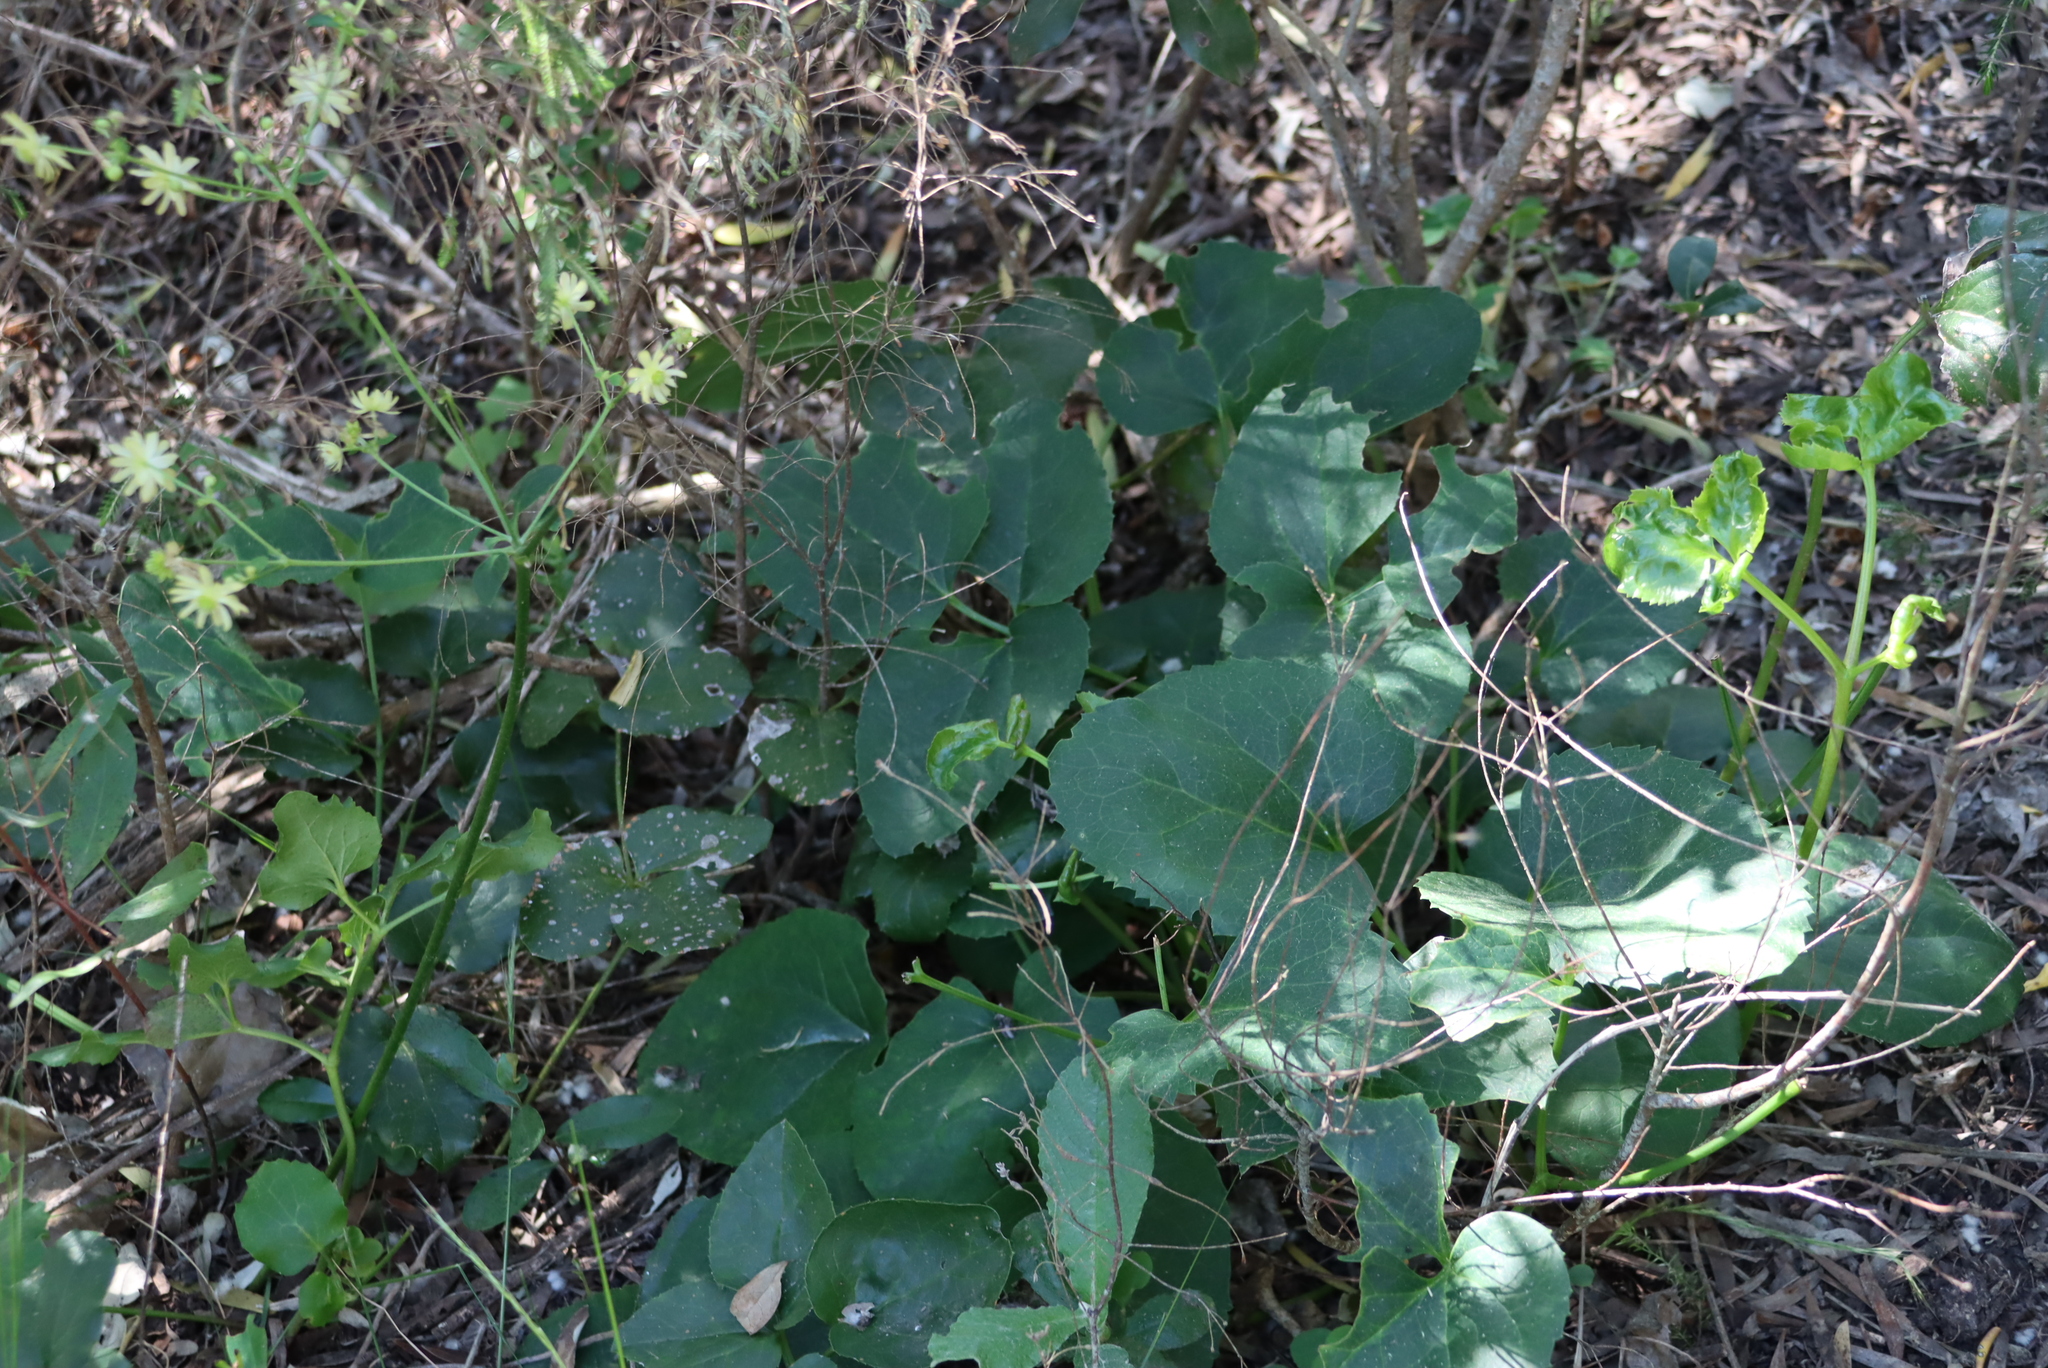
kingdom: Plantae
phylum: Tracheophyta
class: Magnoliopsida
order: Ranunculales
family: Ranunculaceae
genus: Knowltonia
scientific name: Knowltonia vesicatoria
